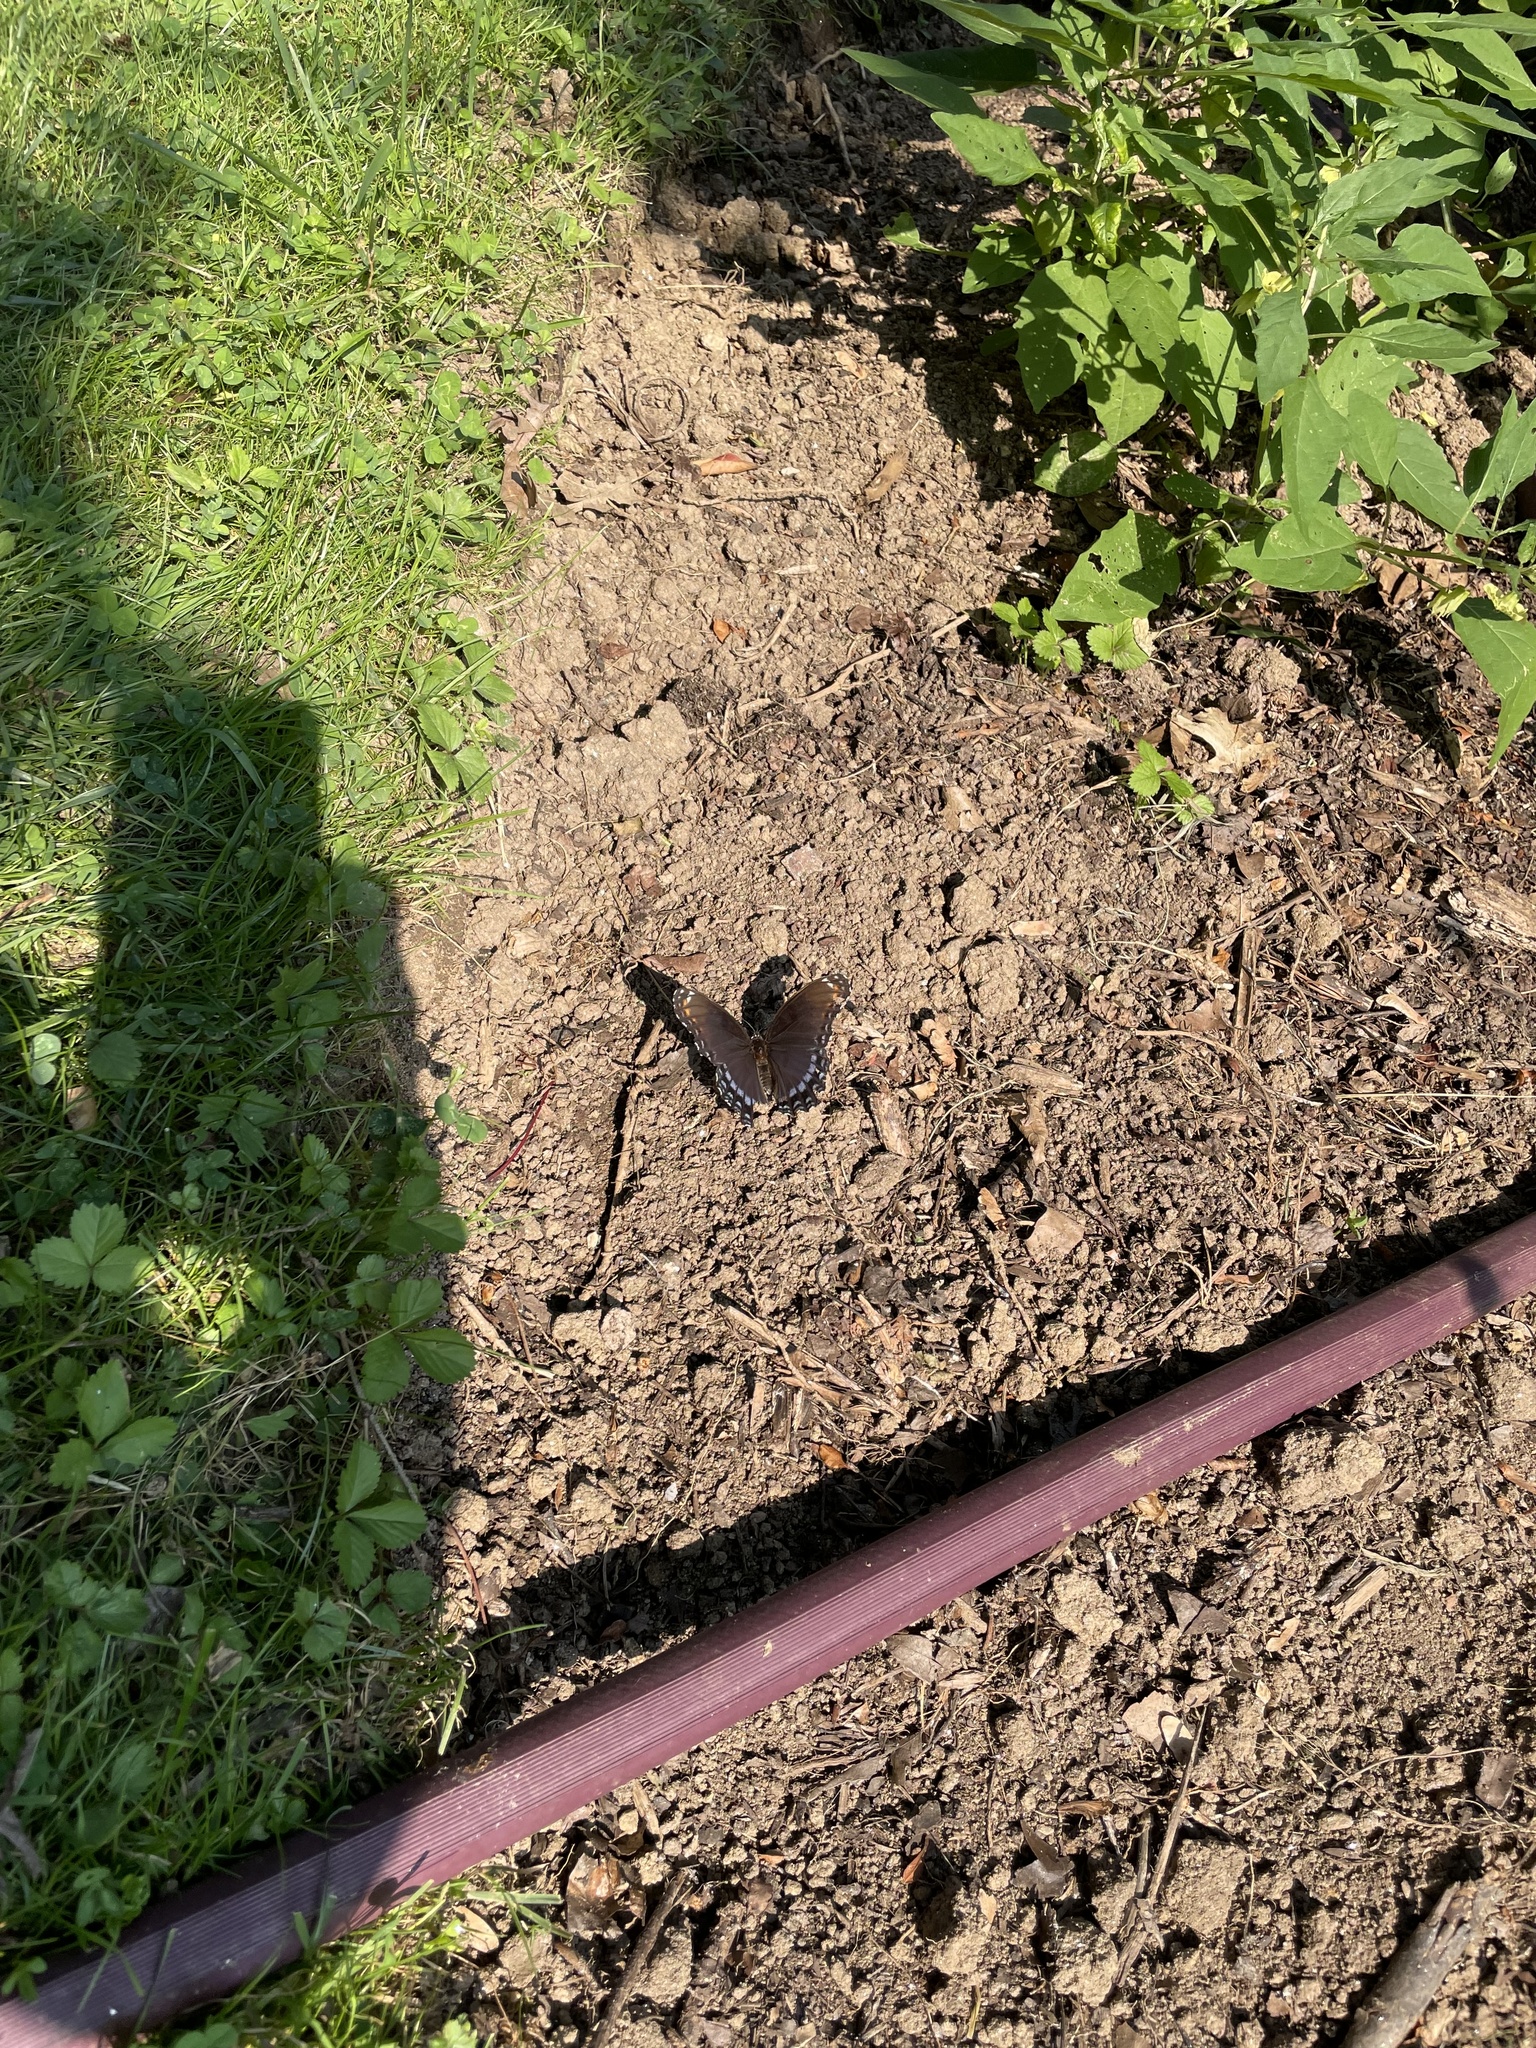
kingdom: Animalia
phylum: Arthropoda
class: Insecta
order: Lepidoptera
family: Nymphalidae
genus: Limenitis
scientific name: Limenitis astyanax
